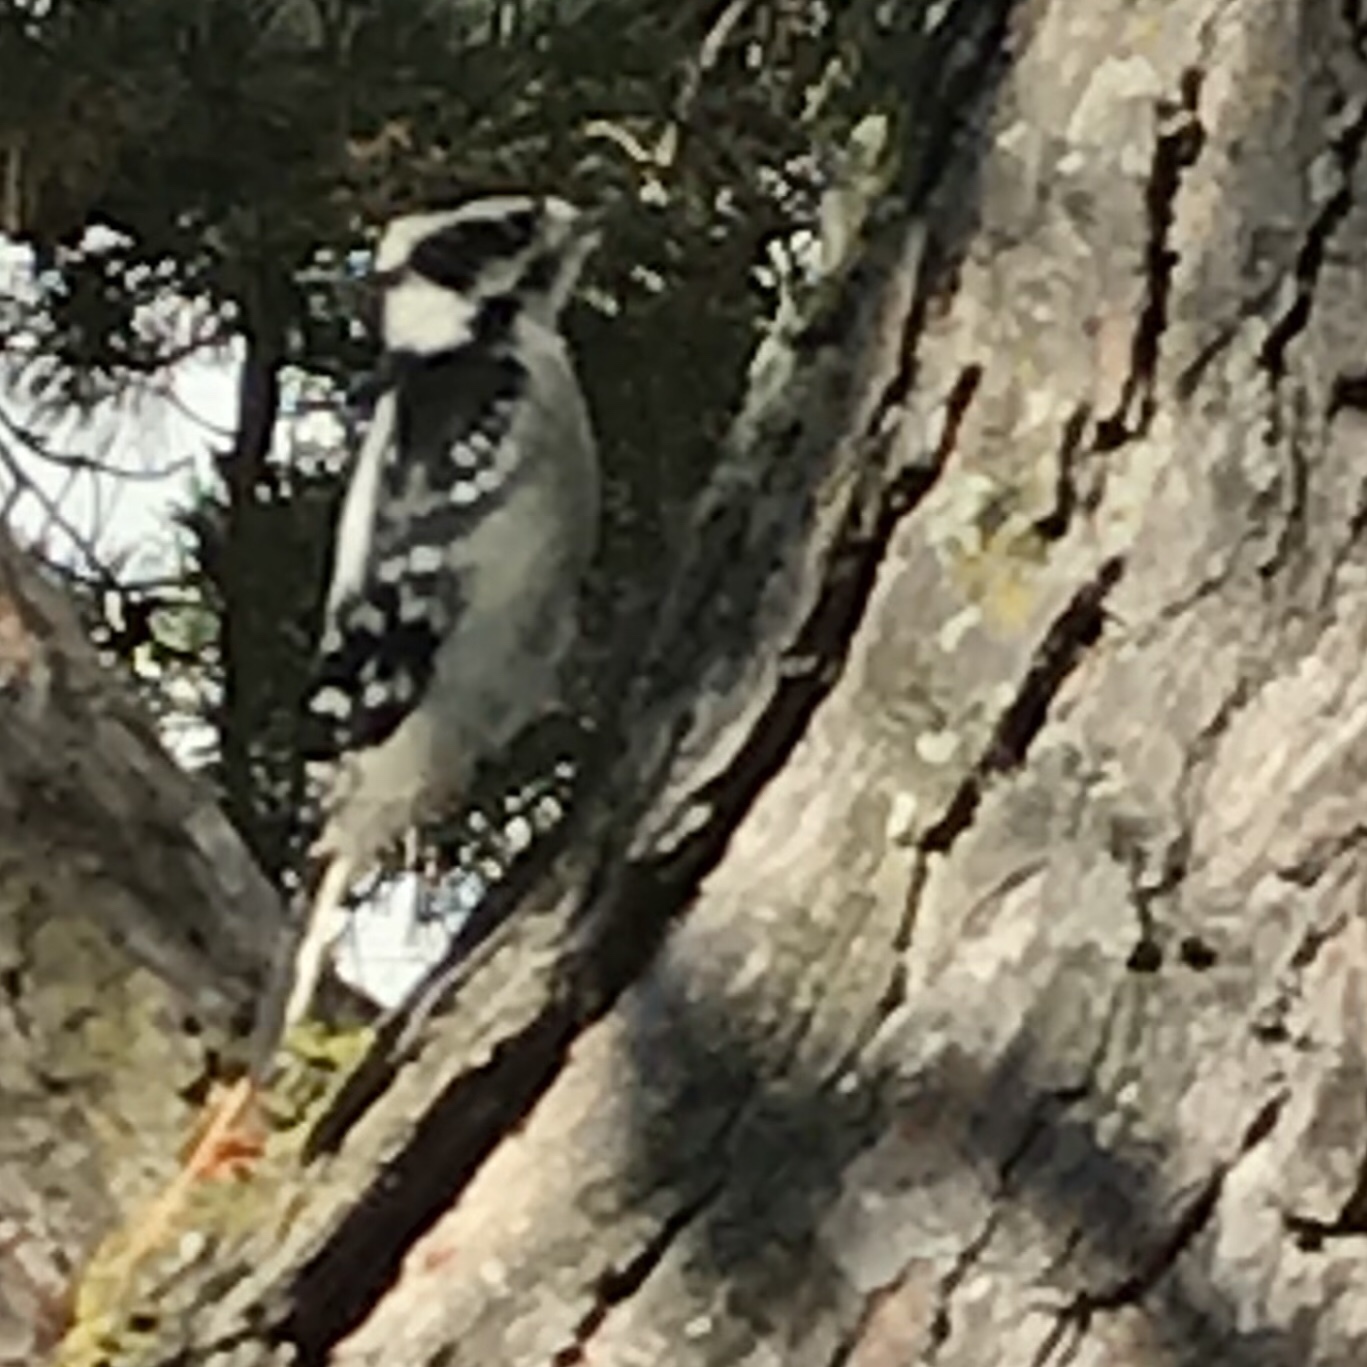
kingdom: Animalia
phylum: Chordata
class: Aves
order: Piciformes
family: Picidae
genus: Dryobates
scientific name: Dryobates pubescens
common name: Downy woodpecker
